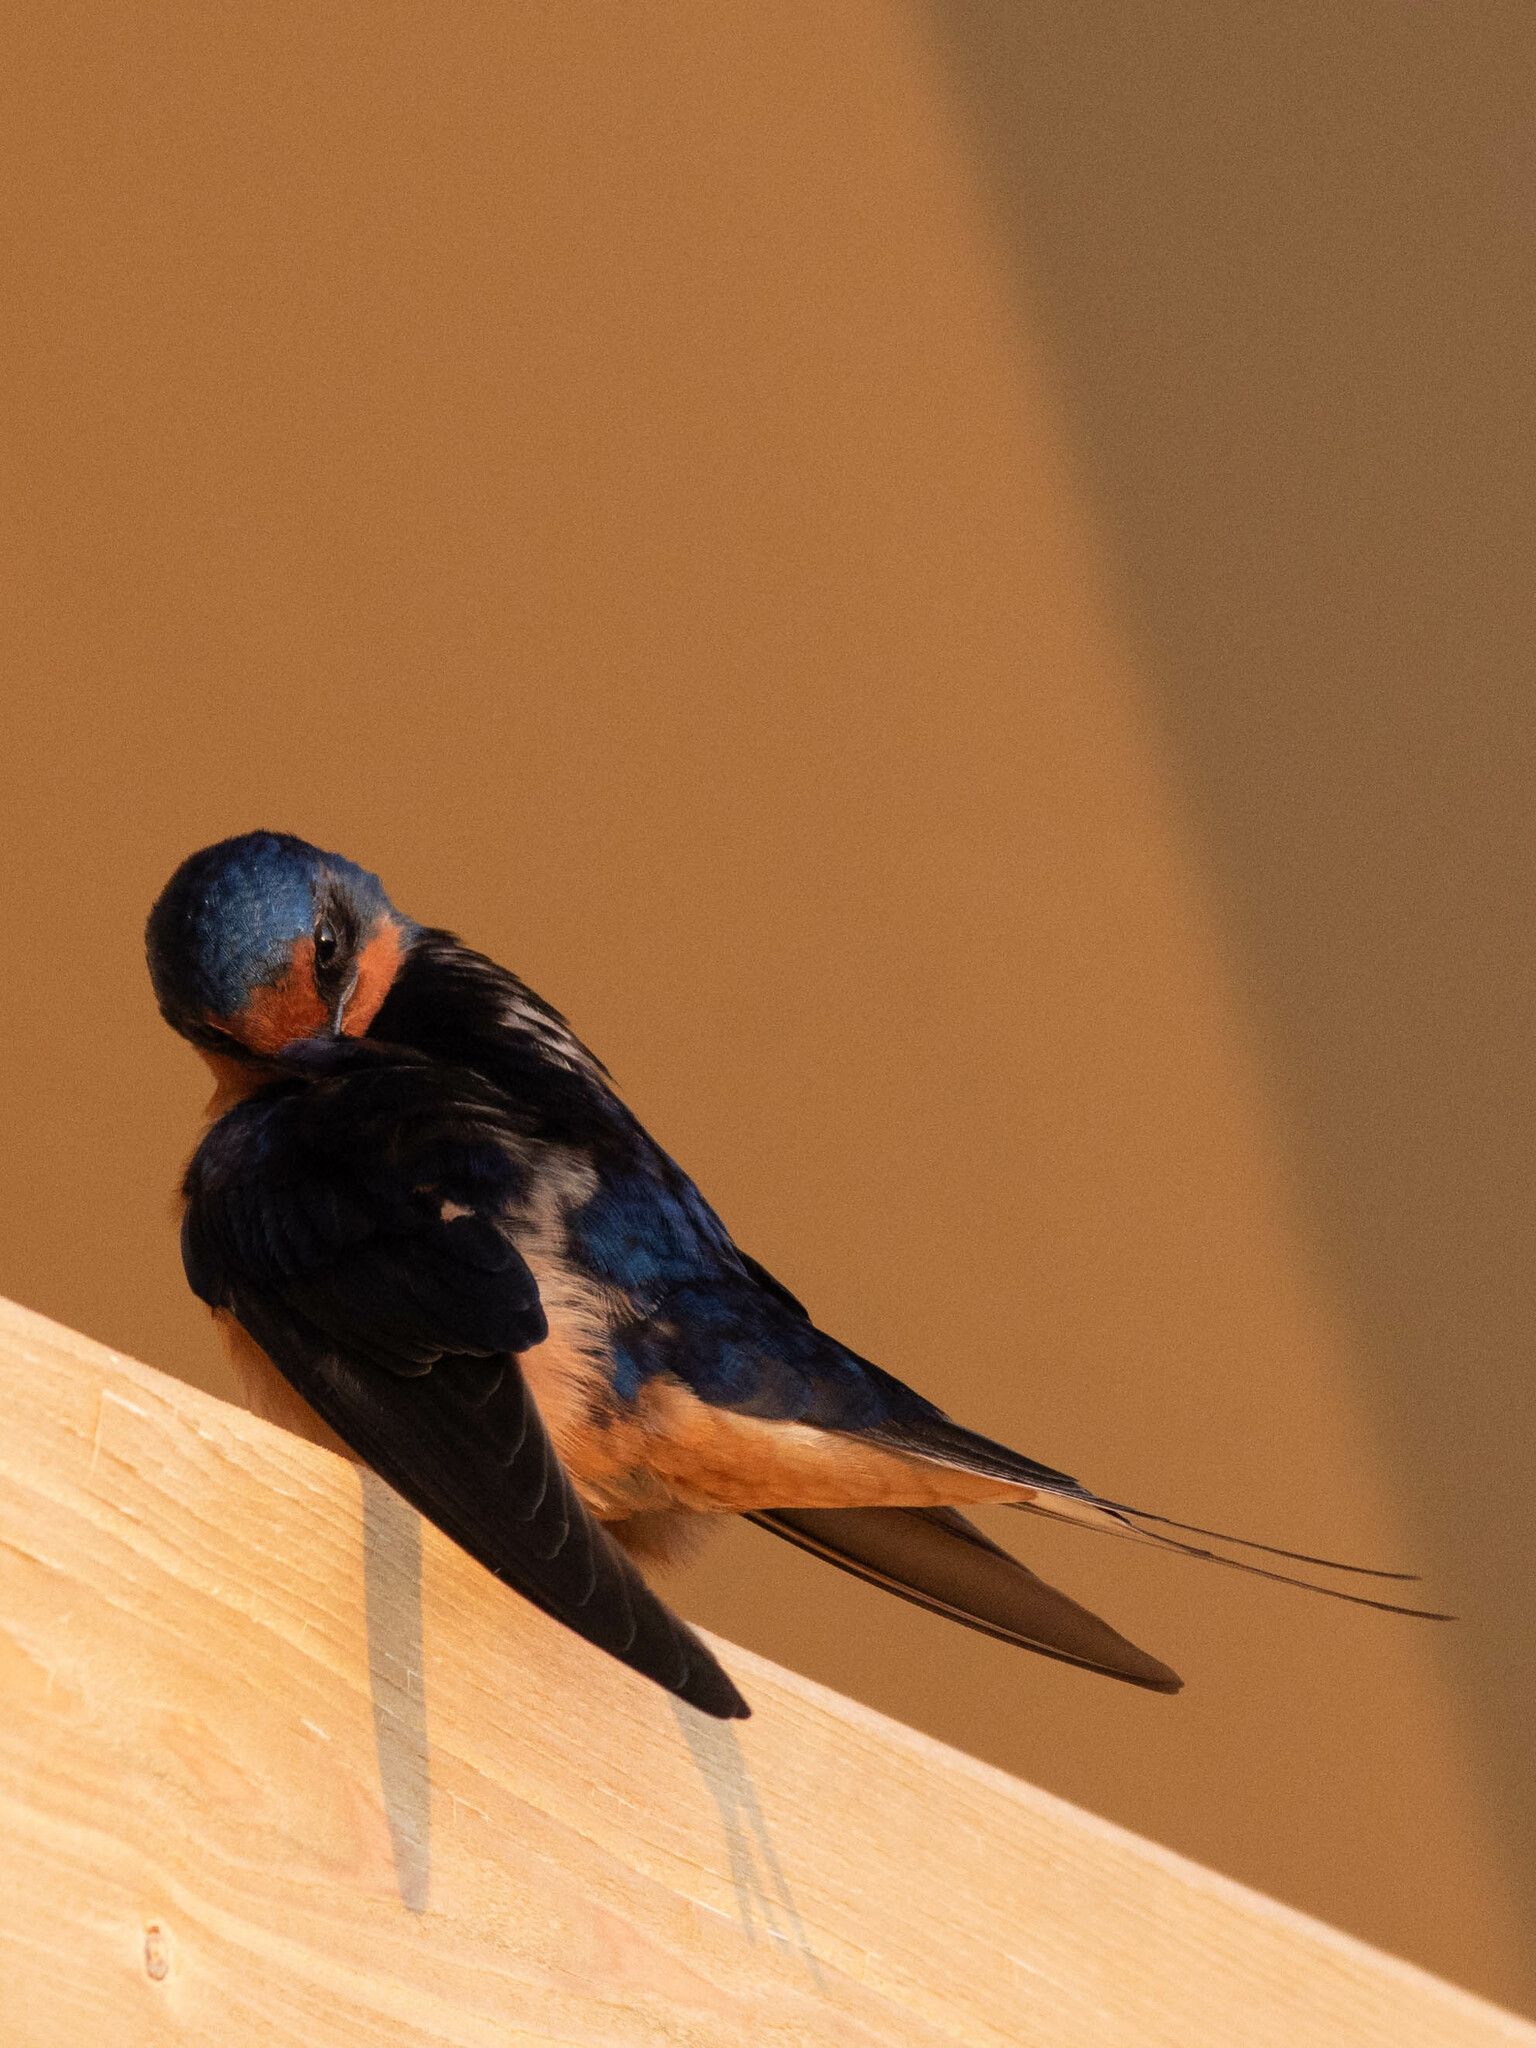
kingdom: Animalia
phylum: Chordata
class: Aves
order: Passeriformes
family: Hirundinidae
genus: Hirundo
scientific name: Hirundo rustica
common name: Barn swallow
